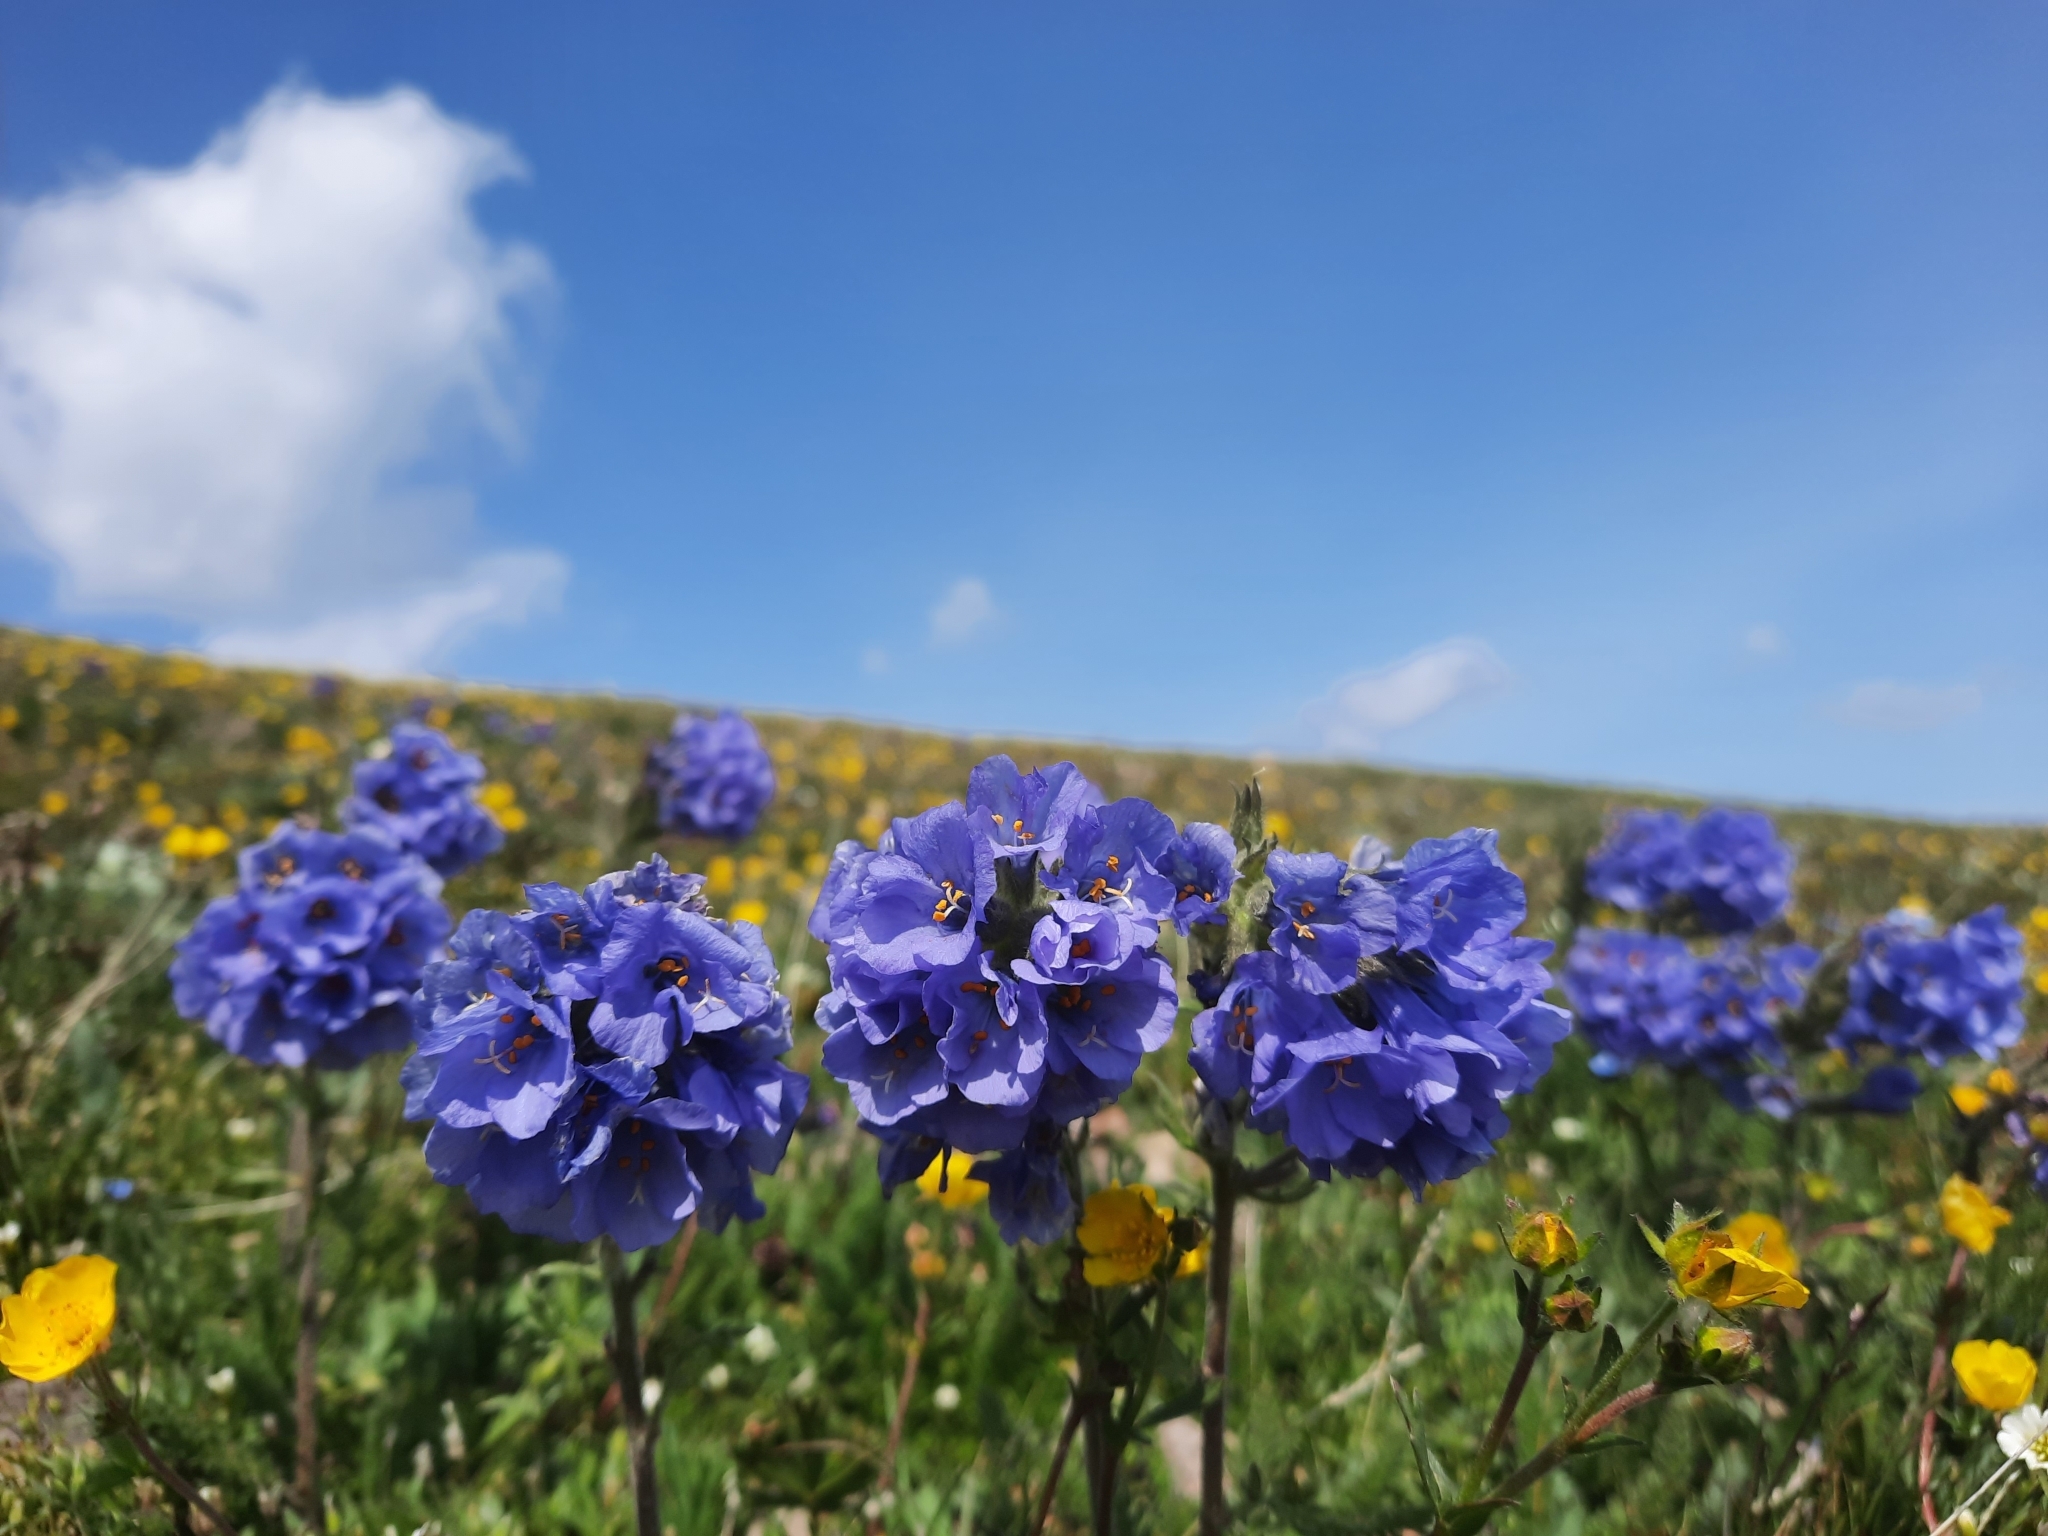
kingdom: Plantae
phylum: Tracheophyta
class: Magnoliopsida
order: Ericales
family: Polemoniaceae
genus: Polemonium
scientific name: Polemonium viscosum
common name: Skunk jacob's-ladder
